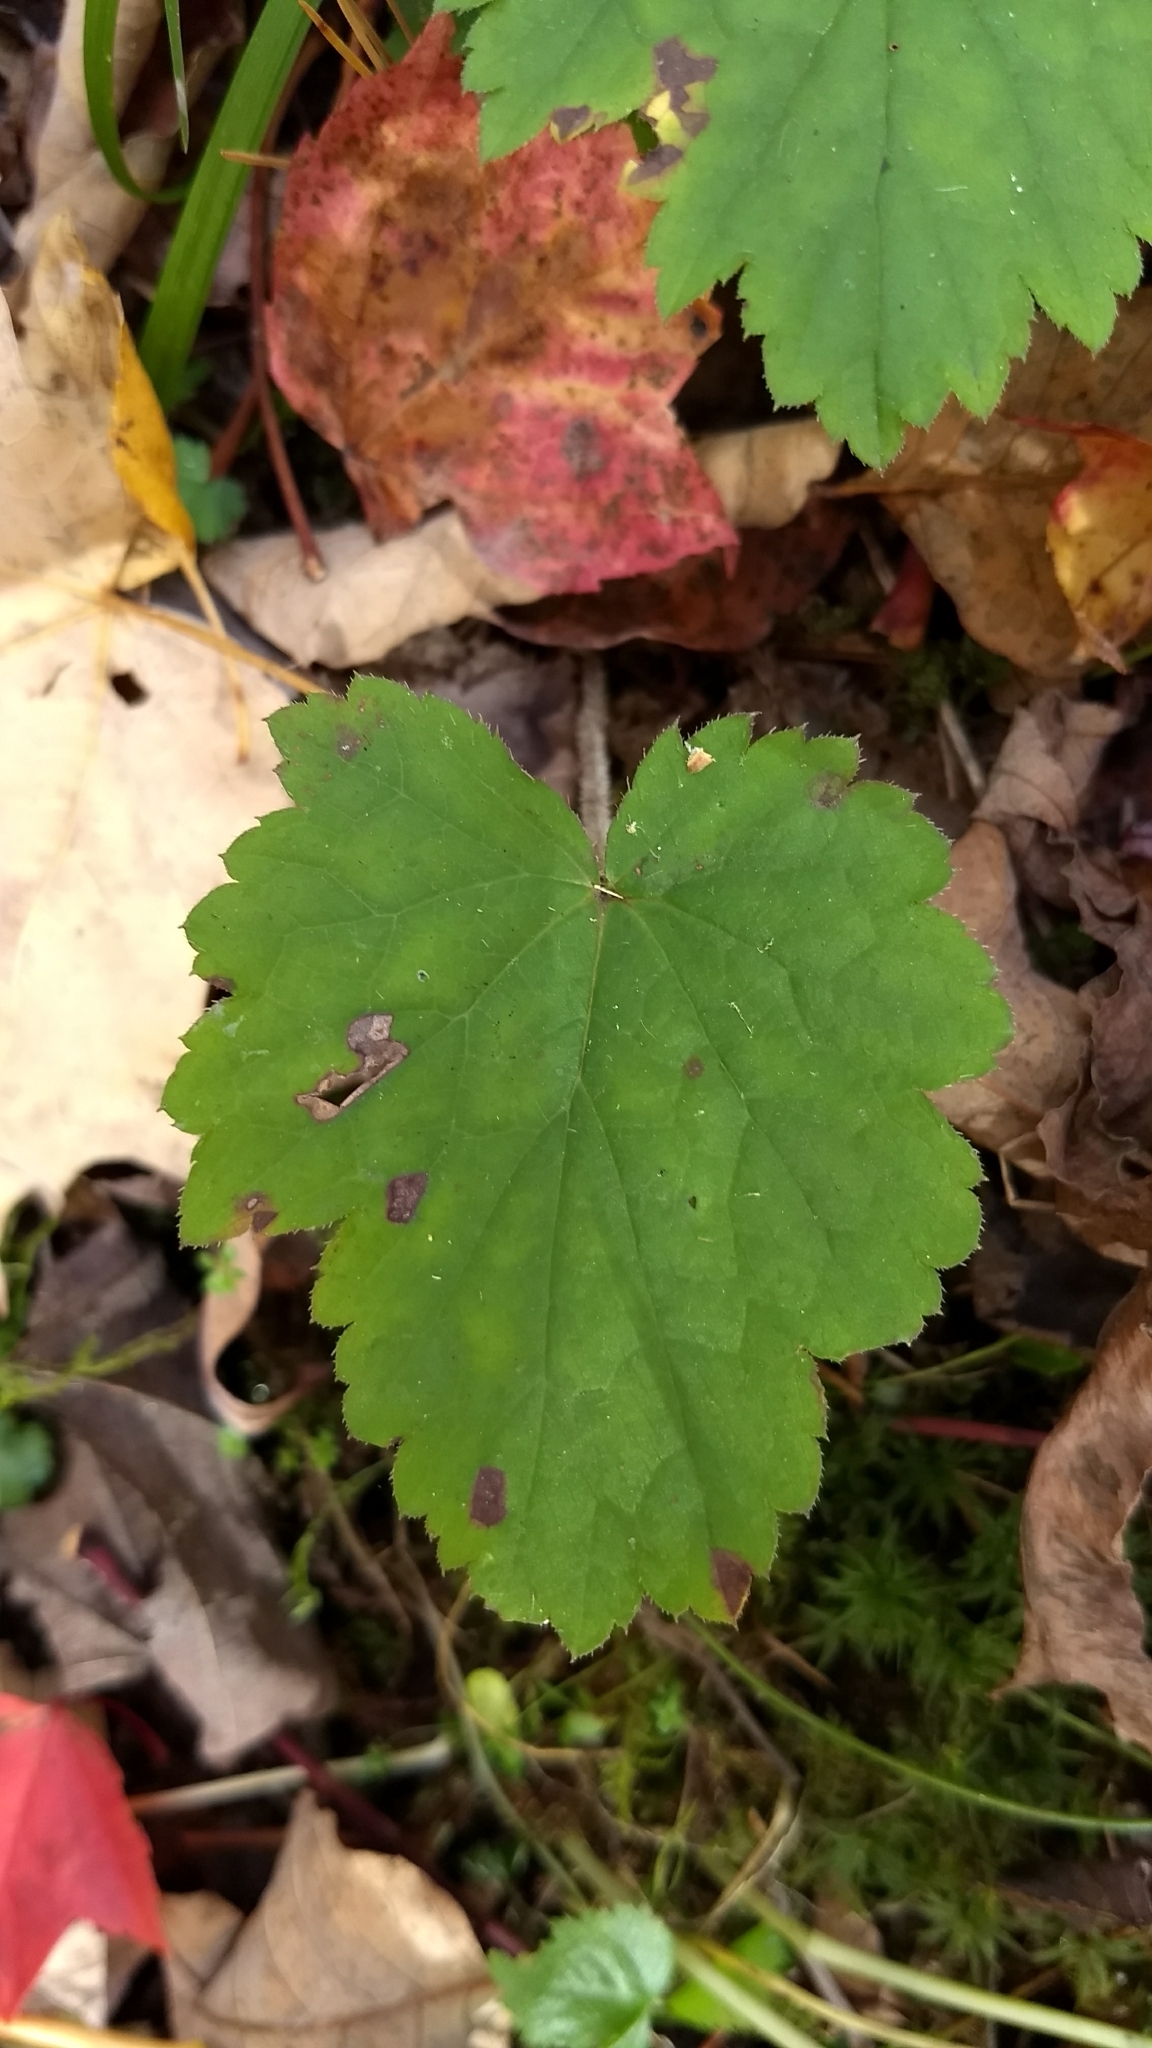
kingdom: Plantae
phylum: Tracheophyta
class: Magnoliopsida
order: Saxifragales
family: Saxifragaceae
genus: Tiarella
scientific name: Tiarella stolonifera
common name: Stoloniferous foamflower
